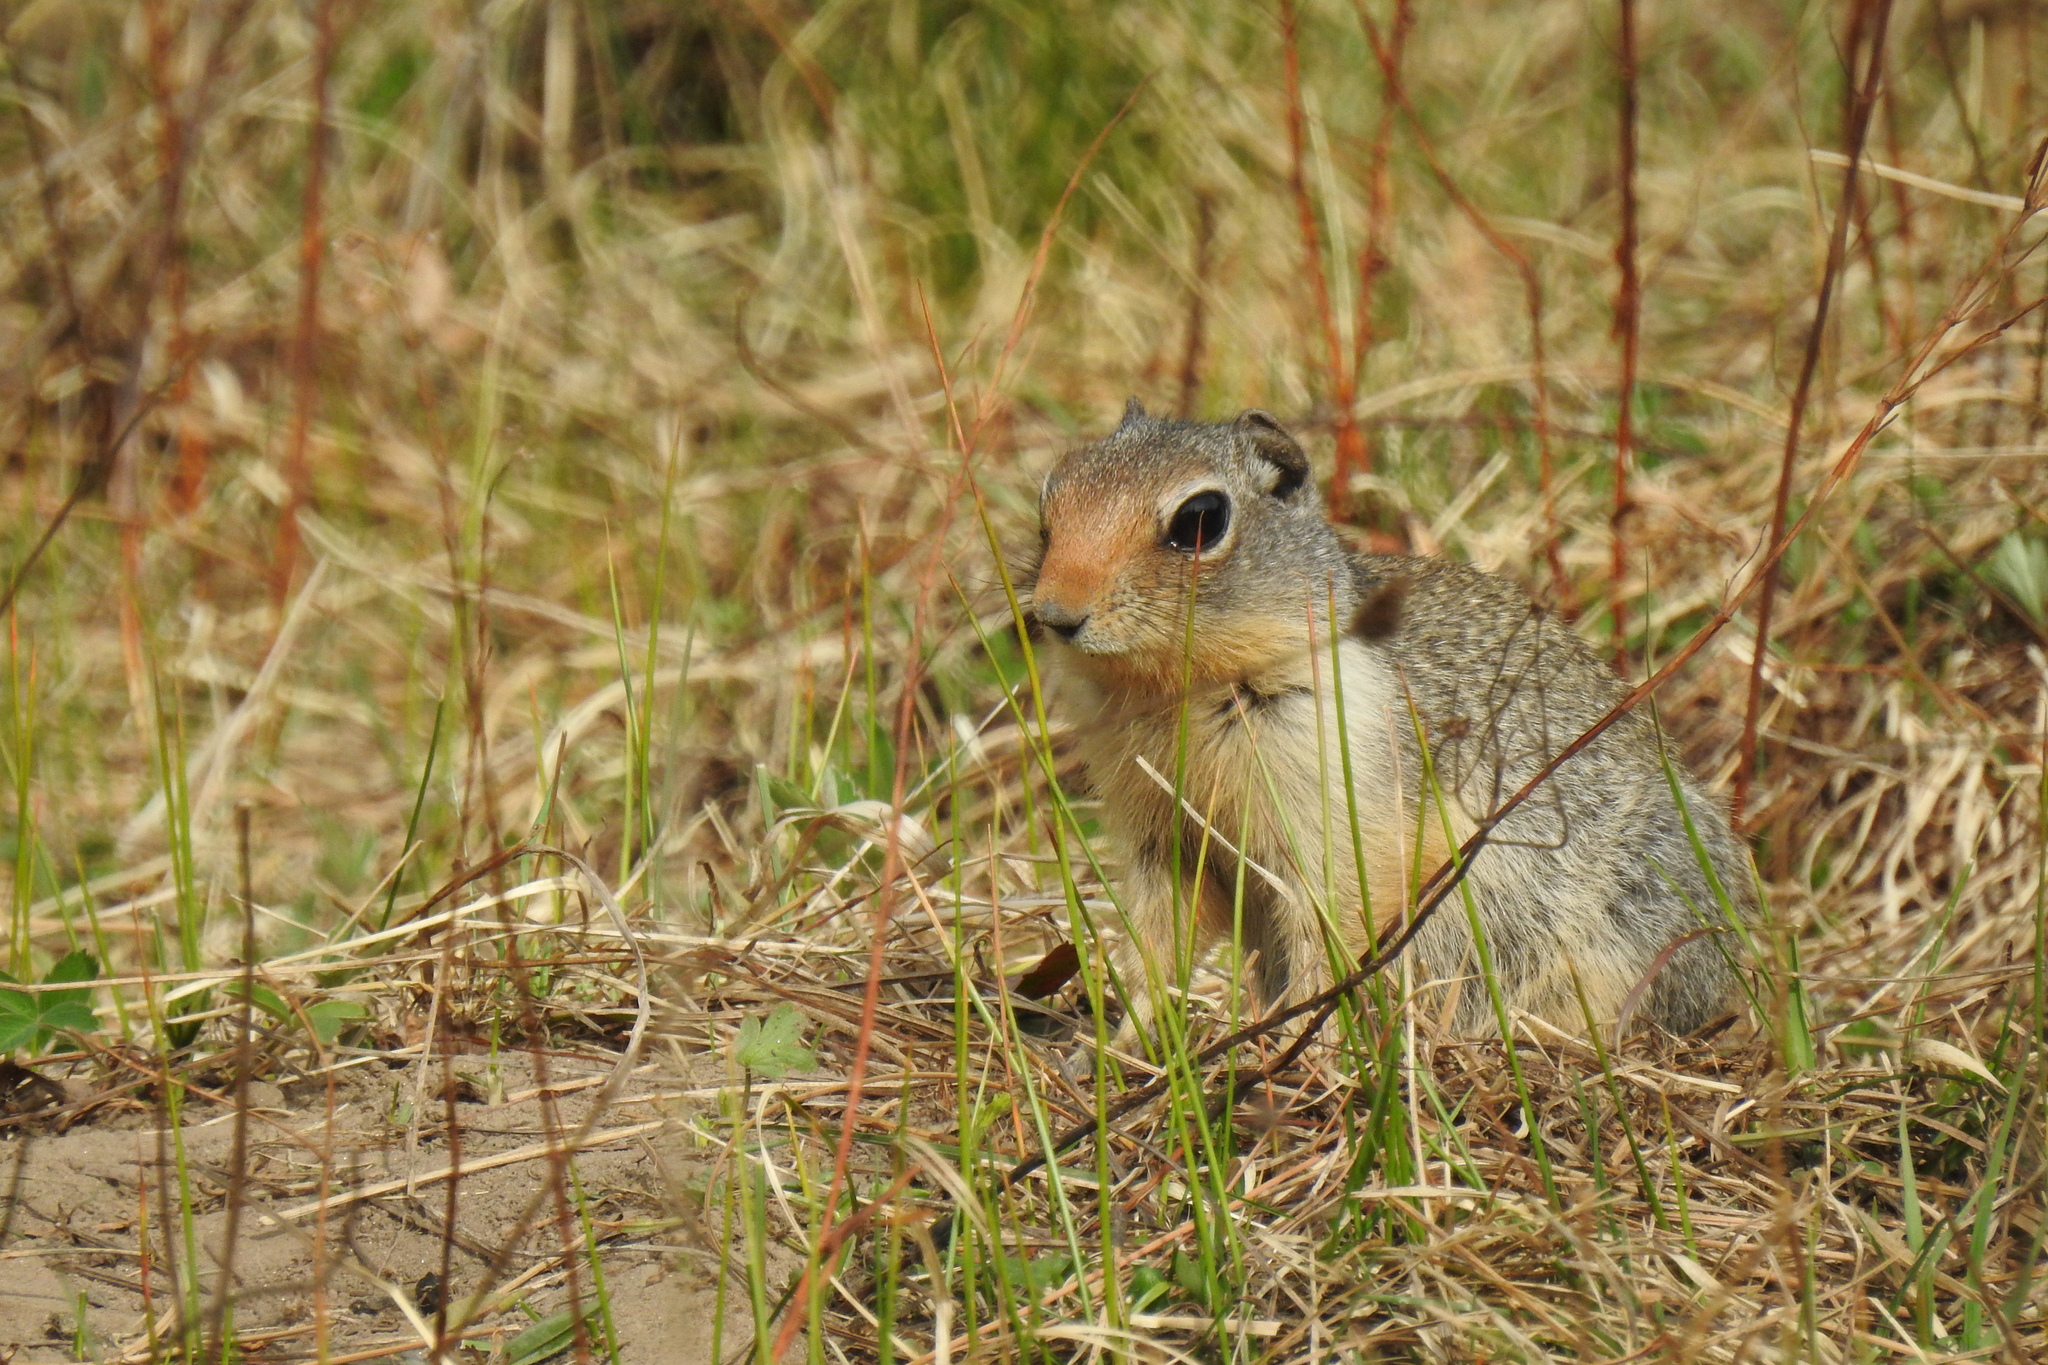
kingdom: Animalia
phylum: Chordata
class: Mammalia
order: Rodentia
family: Sciuridae
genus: Urocitellus
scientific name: Urocitellus columbianus
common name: Columbian ground squirrel
